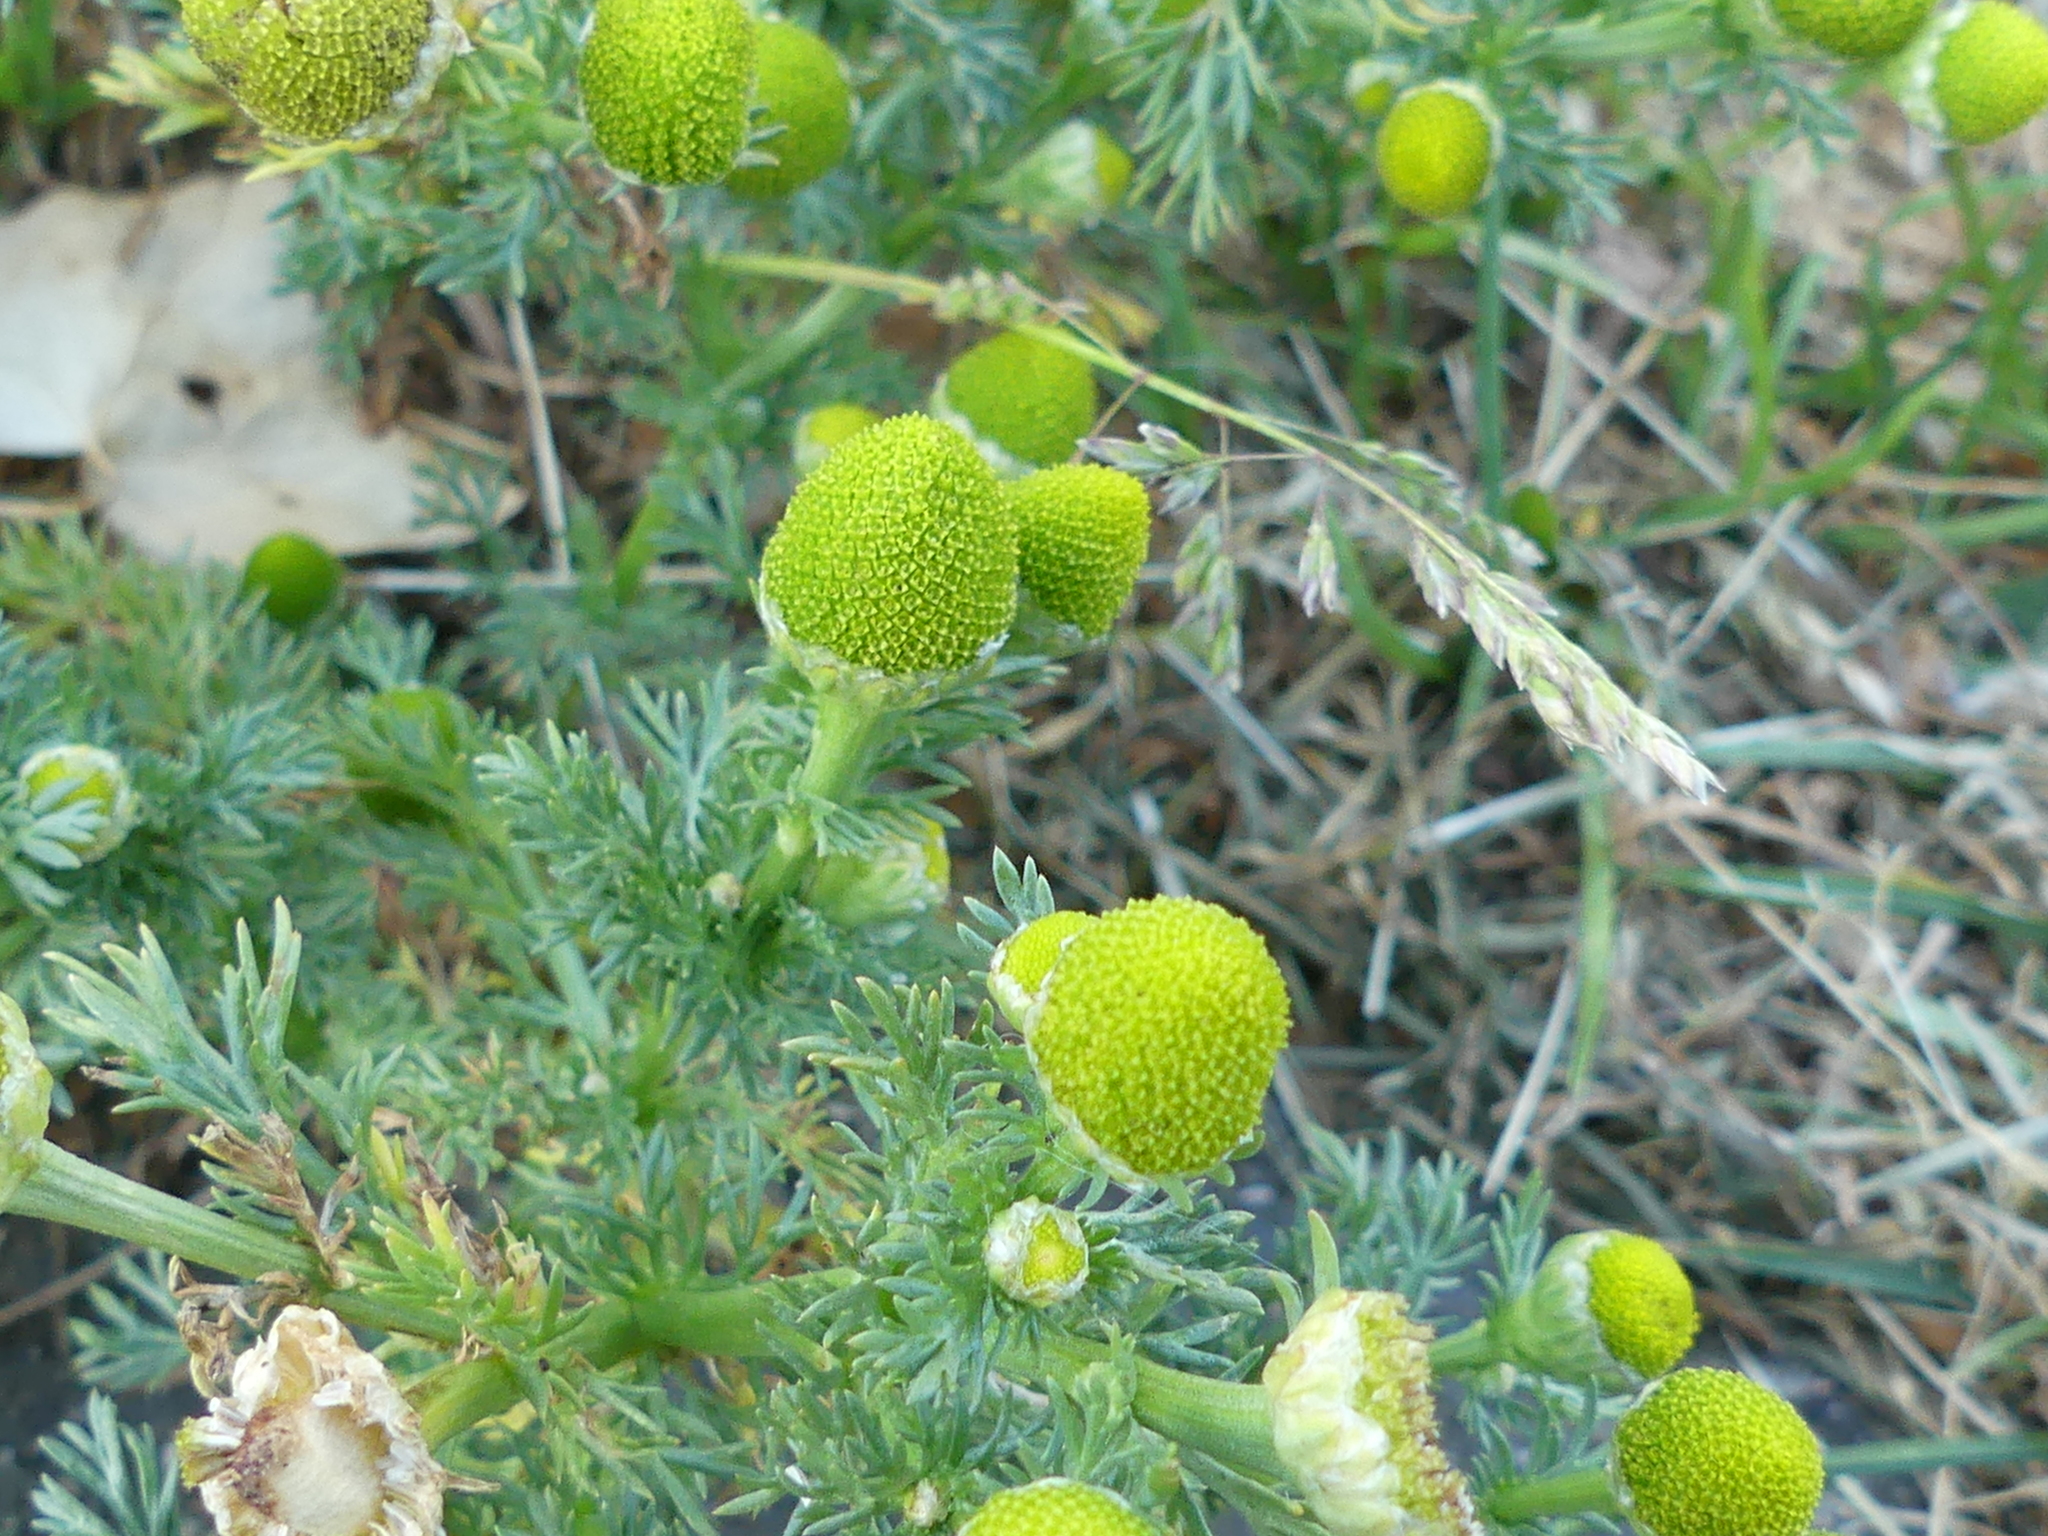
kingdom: Plantae
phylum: Tracheophyta
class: Magnoliopsida
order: Asterales
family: Asteraceae
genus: Matricaria
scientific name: Matricaria discoidea
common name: Disc mayweed
